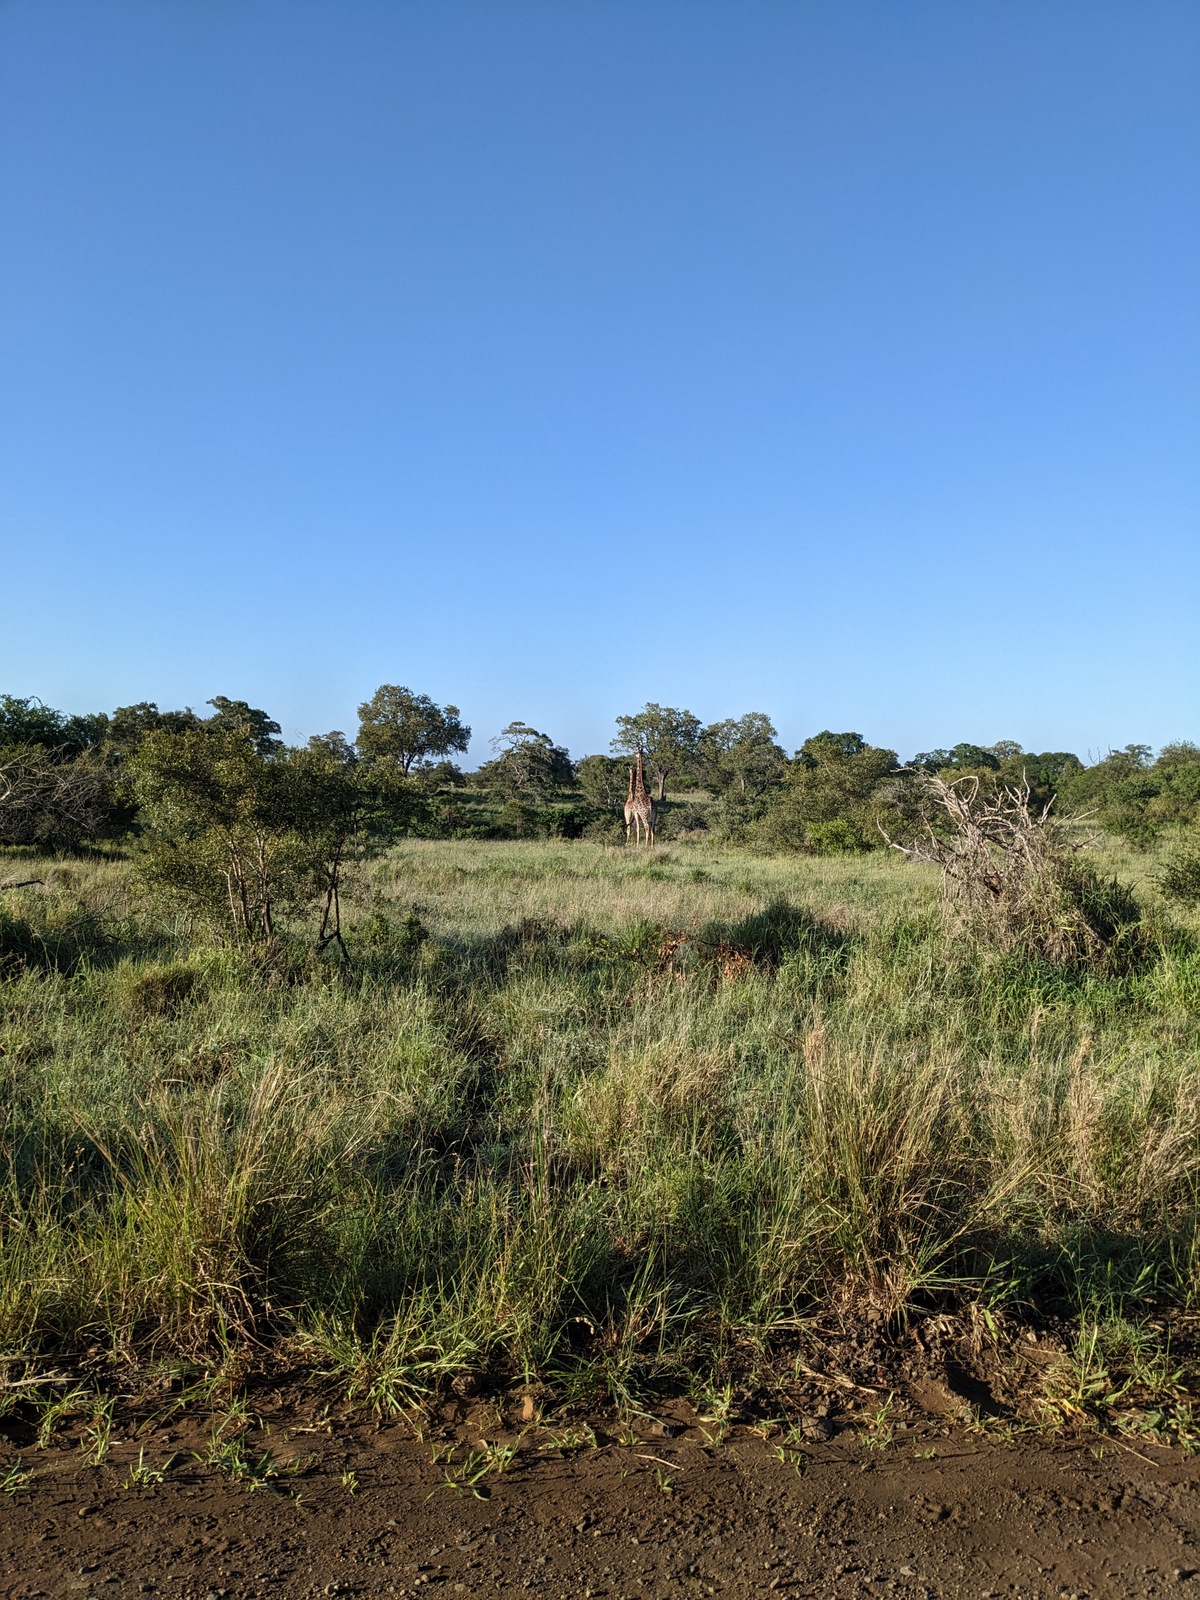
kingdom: Animalia
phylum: Chordata
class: Mammalia
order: Artiodactyla
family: Giraffidae
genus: Giraffa
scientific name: Giraffa giraffa
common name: Southern giraffe
